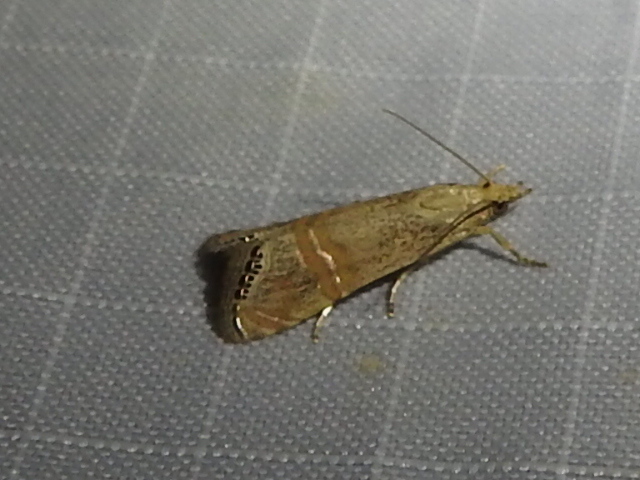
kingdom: Animalia
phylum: Arthropoda
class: Insecta
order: Lepidoptera
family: Crambidae
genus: Euchromius
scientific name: Euchromius ocellea
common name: Necklace veneer moth
